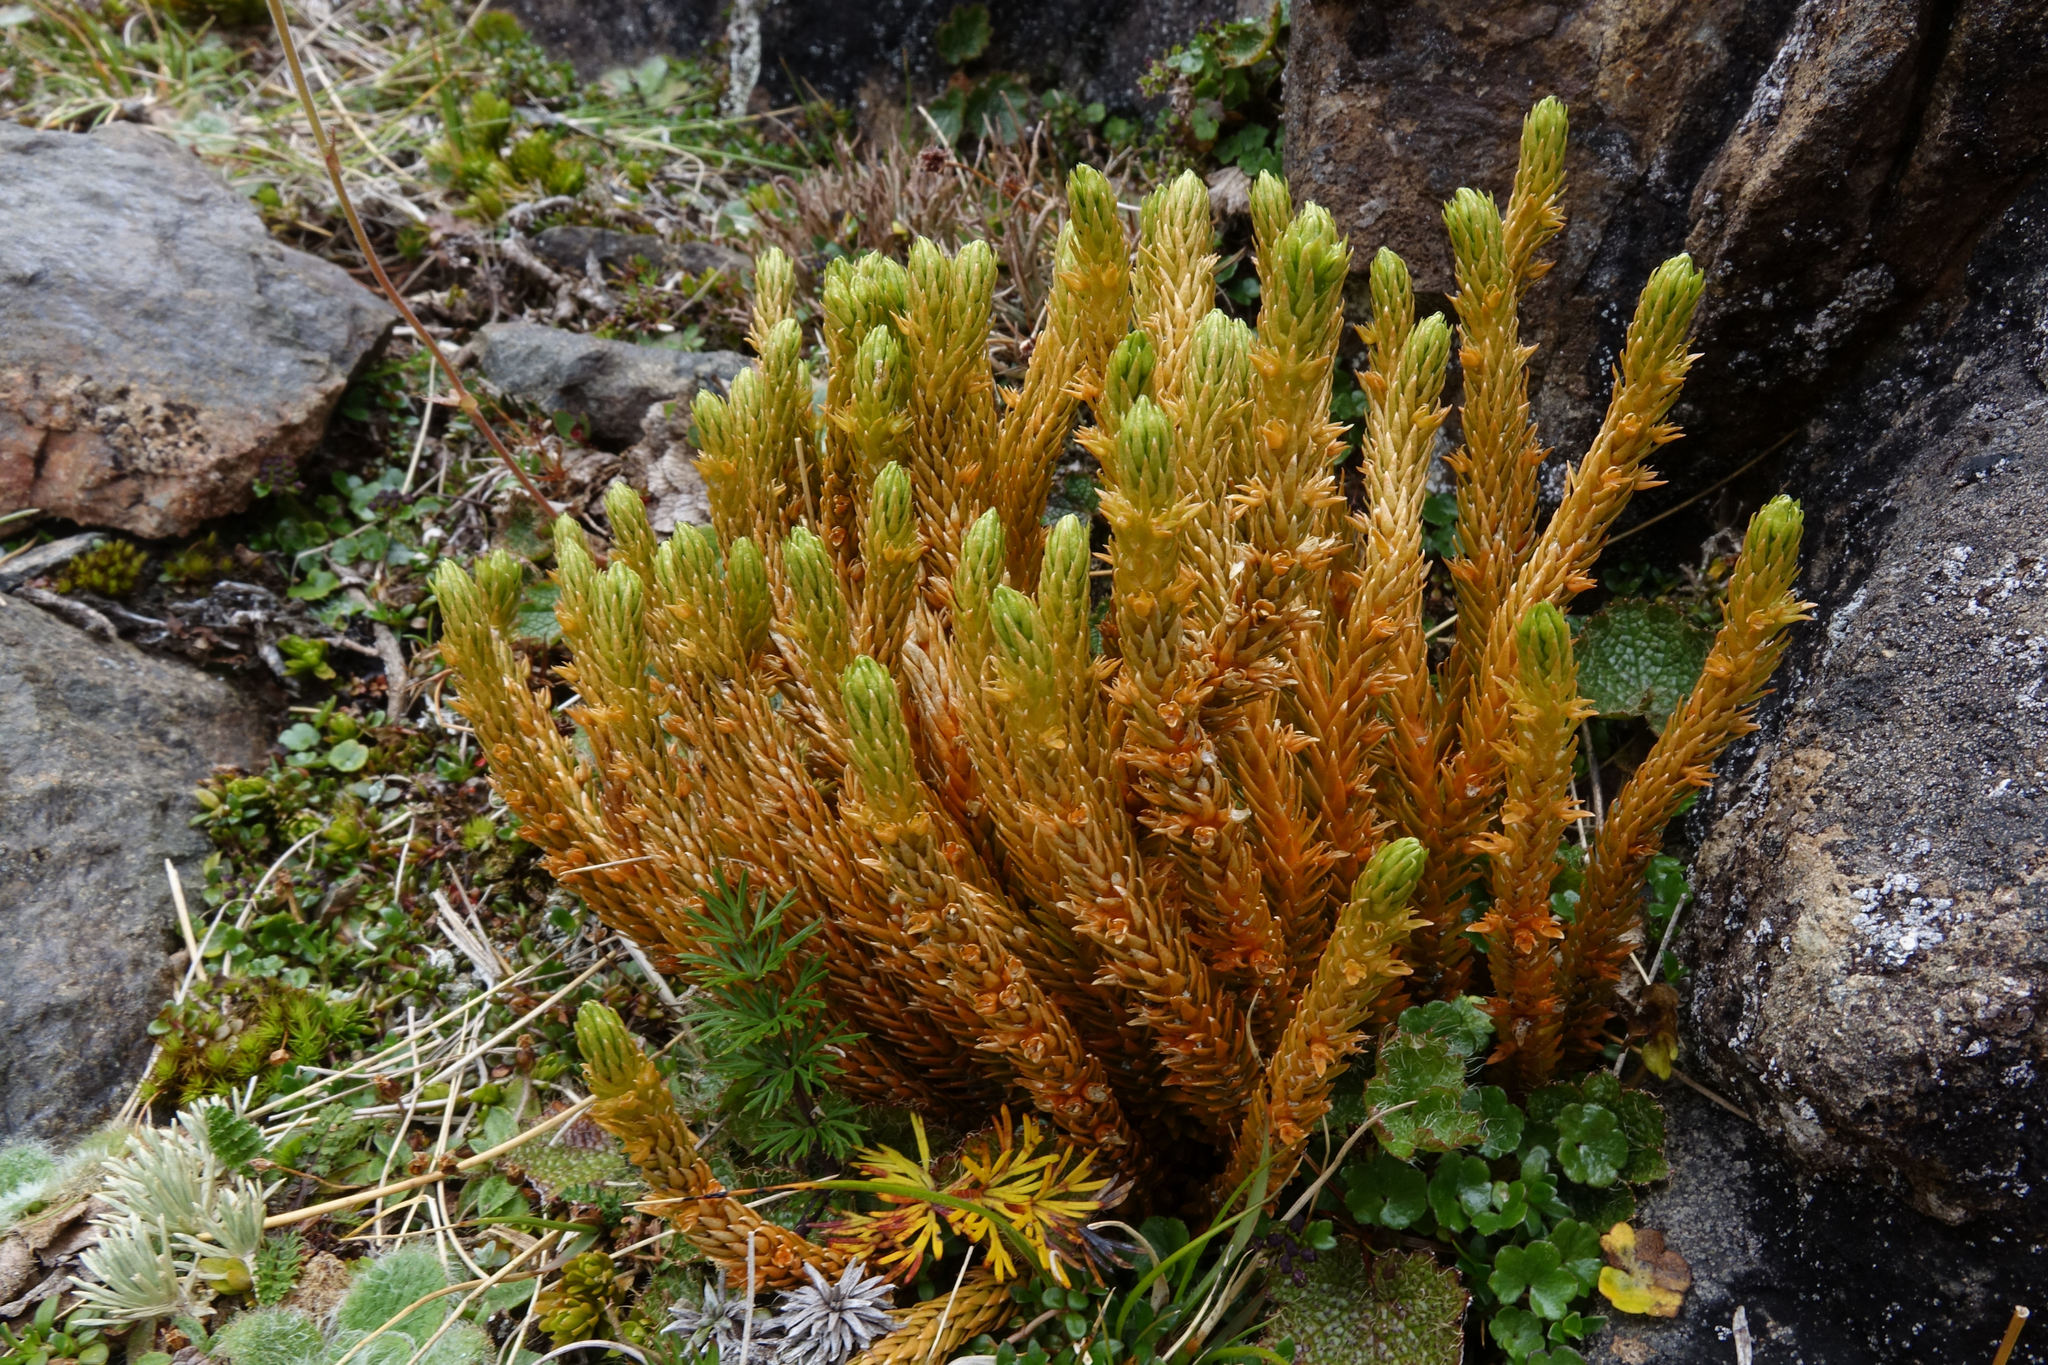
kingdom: Plantae
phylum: Tracheophyta
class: Lycopodiopsida
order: Lycopodiales
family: Lycopodiaceae
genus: Huperzia
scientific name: Huperzia australiana
